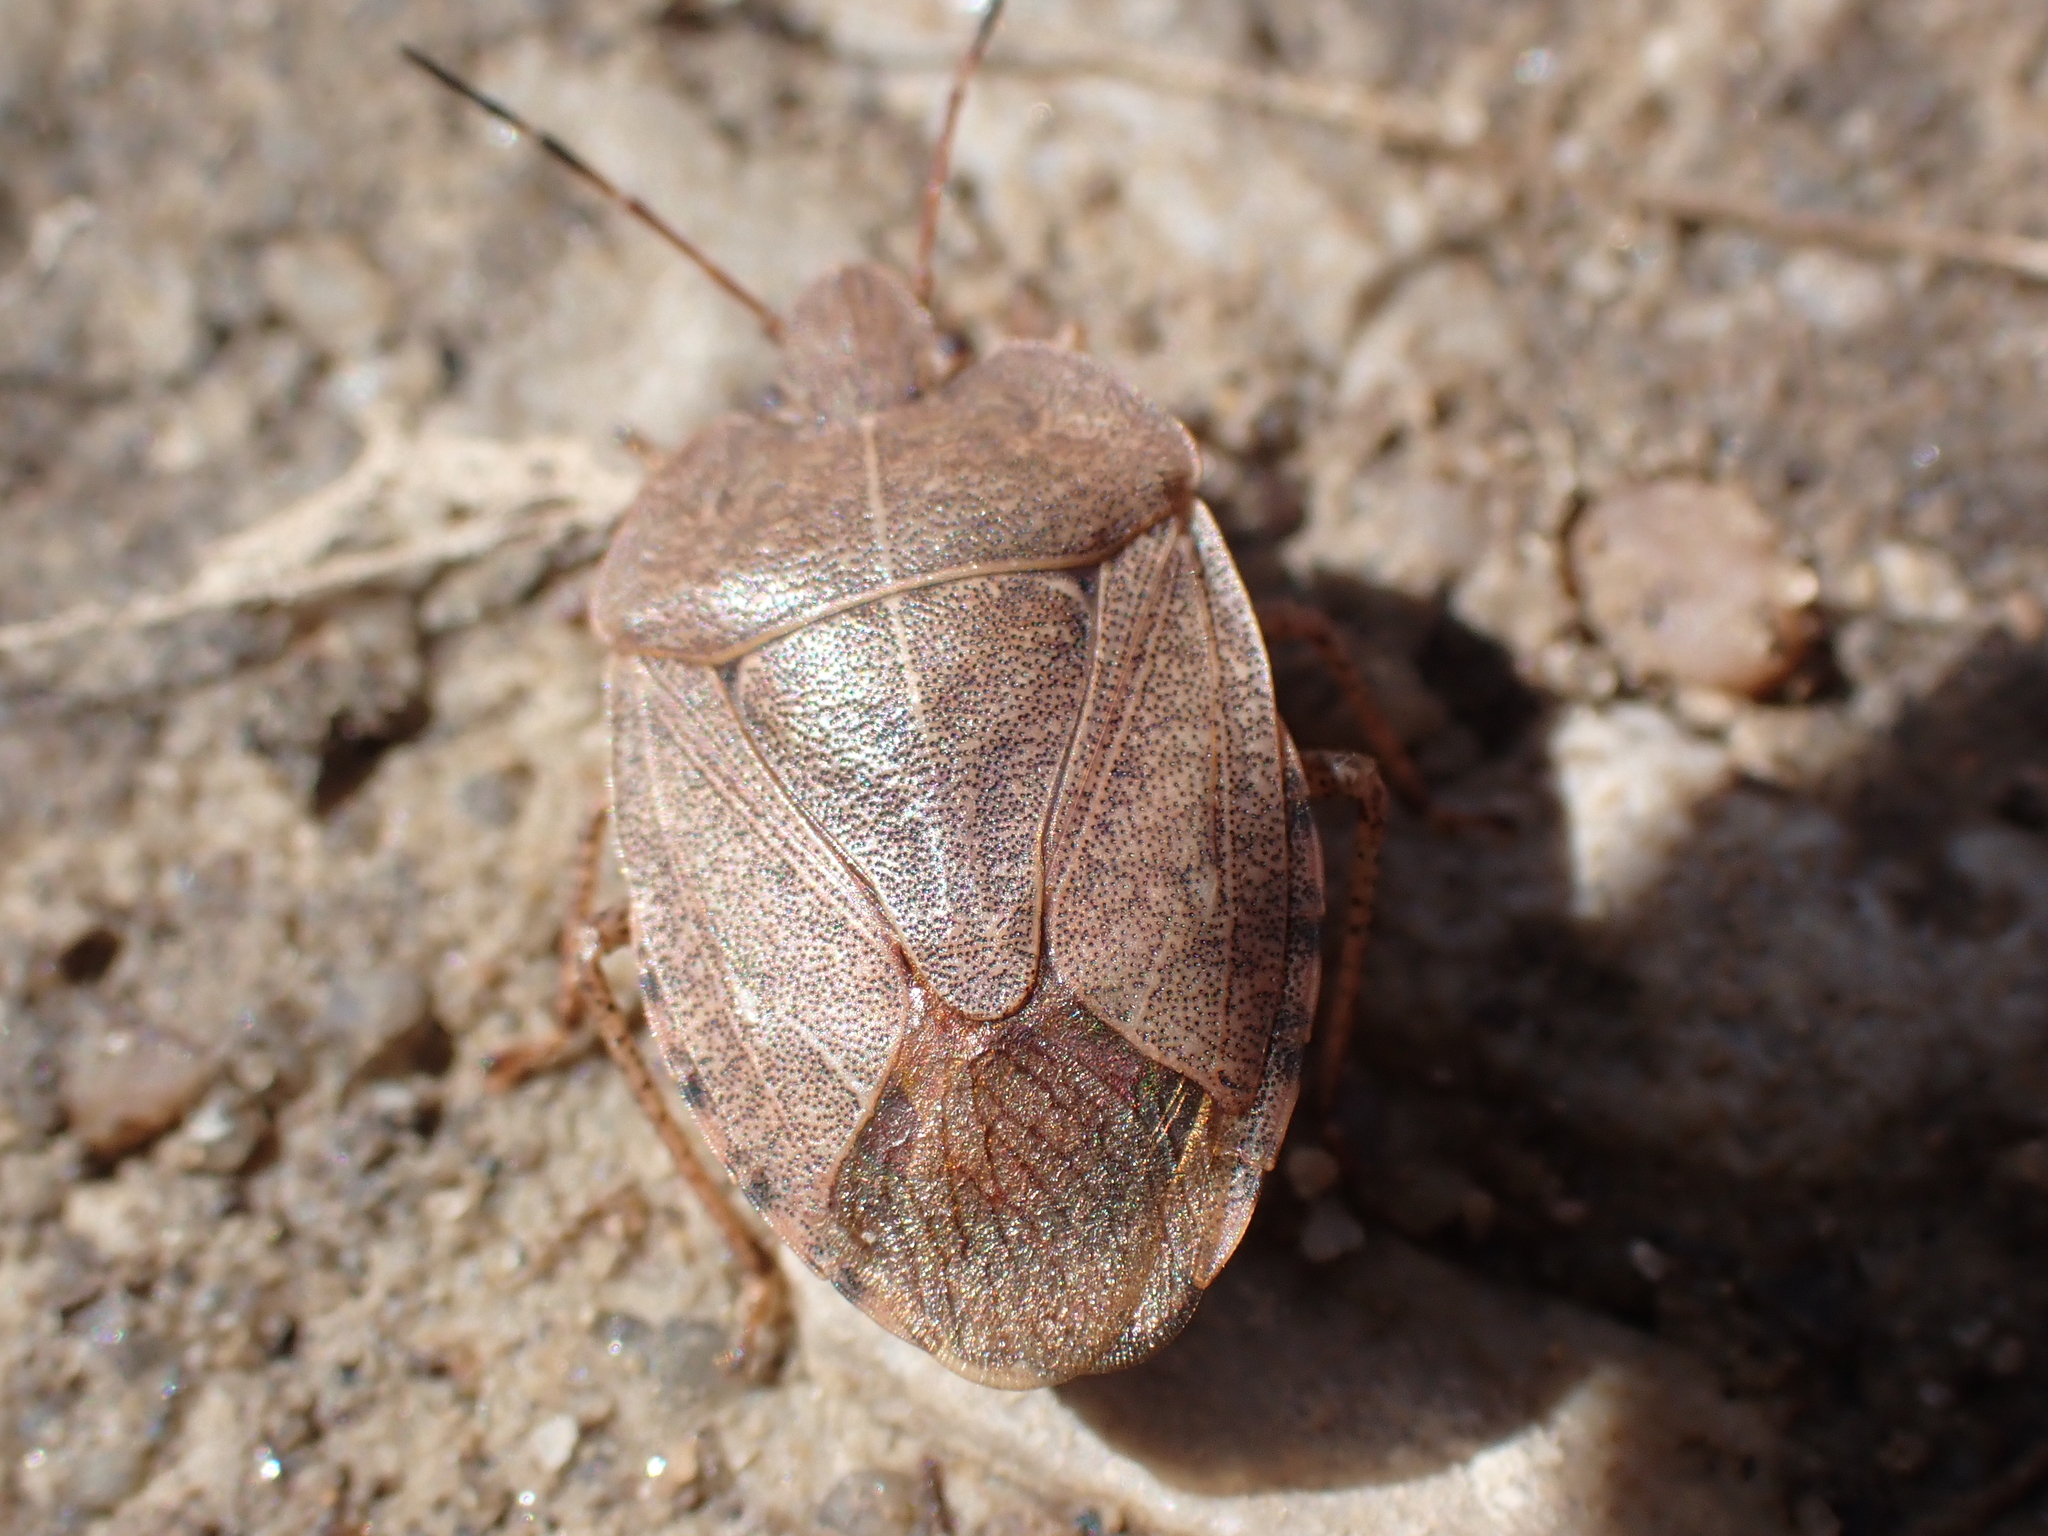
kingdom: Animalia
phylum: Arthropoda
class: Insecta
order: Hemiptera
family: Pentatomidae
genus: Menecles
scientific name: Menecles insertus
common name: Elf shoe stink bug
